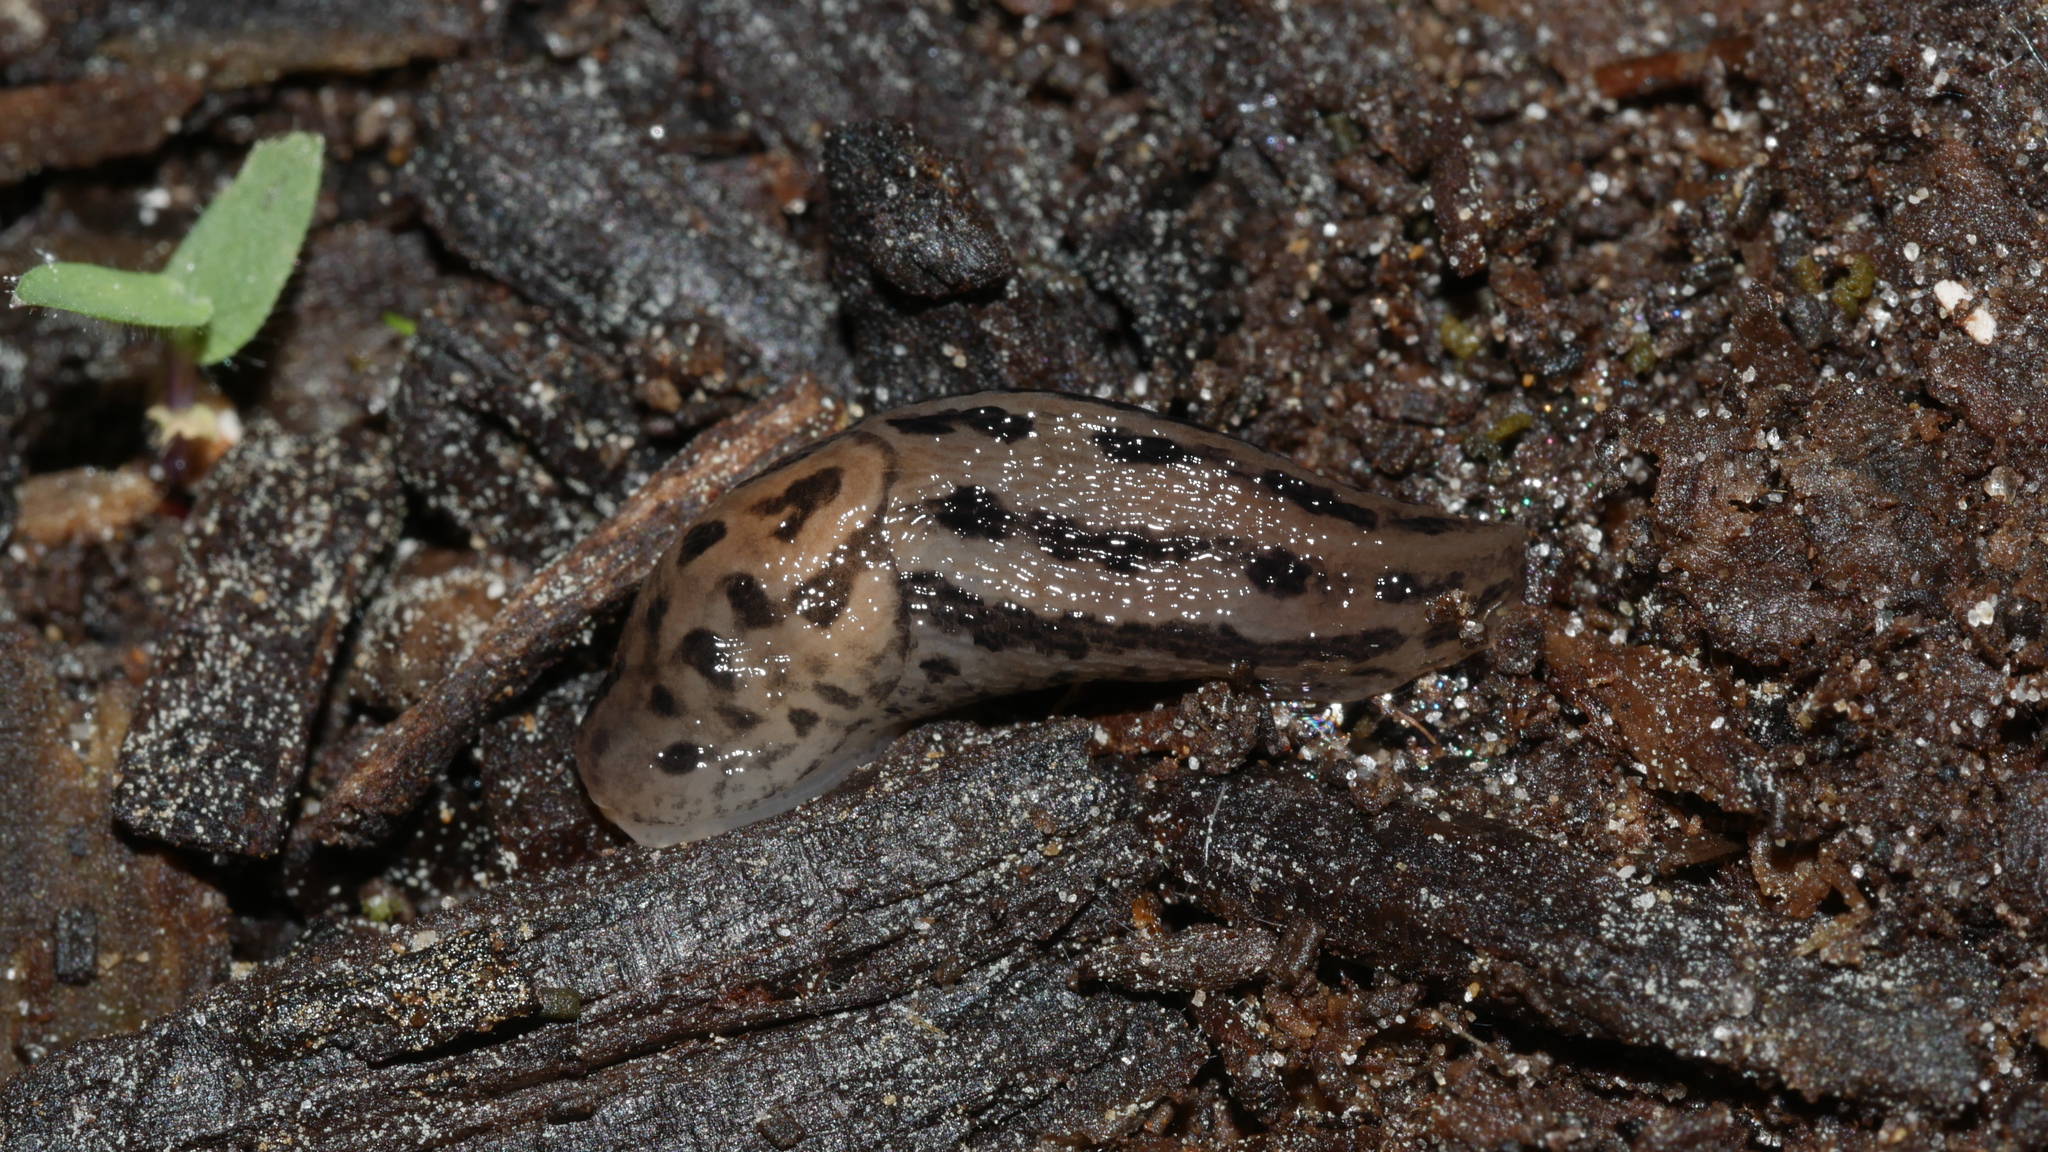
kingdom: Animalia
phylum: Mollusca
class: Gastropoda
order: Stylommatophora
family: Limacidae
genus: Limax
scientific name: Limax maximus
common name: Great grey slug
